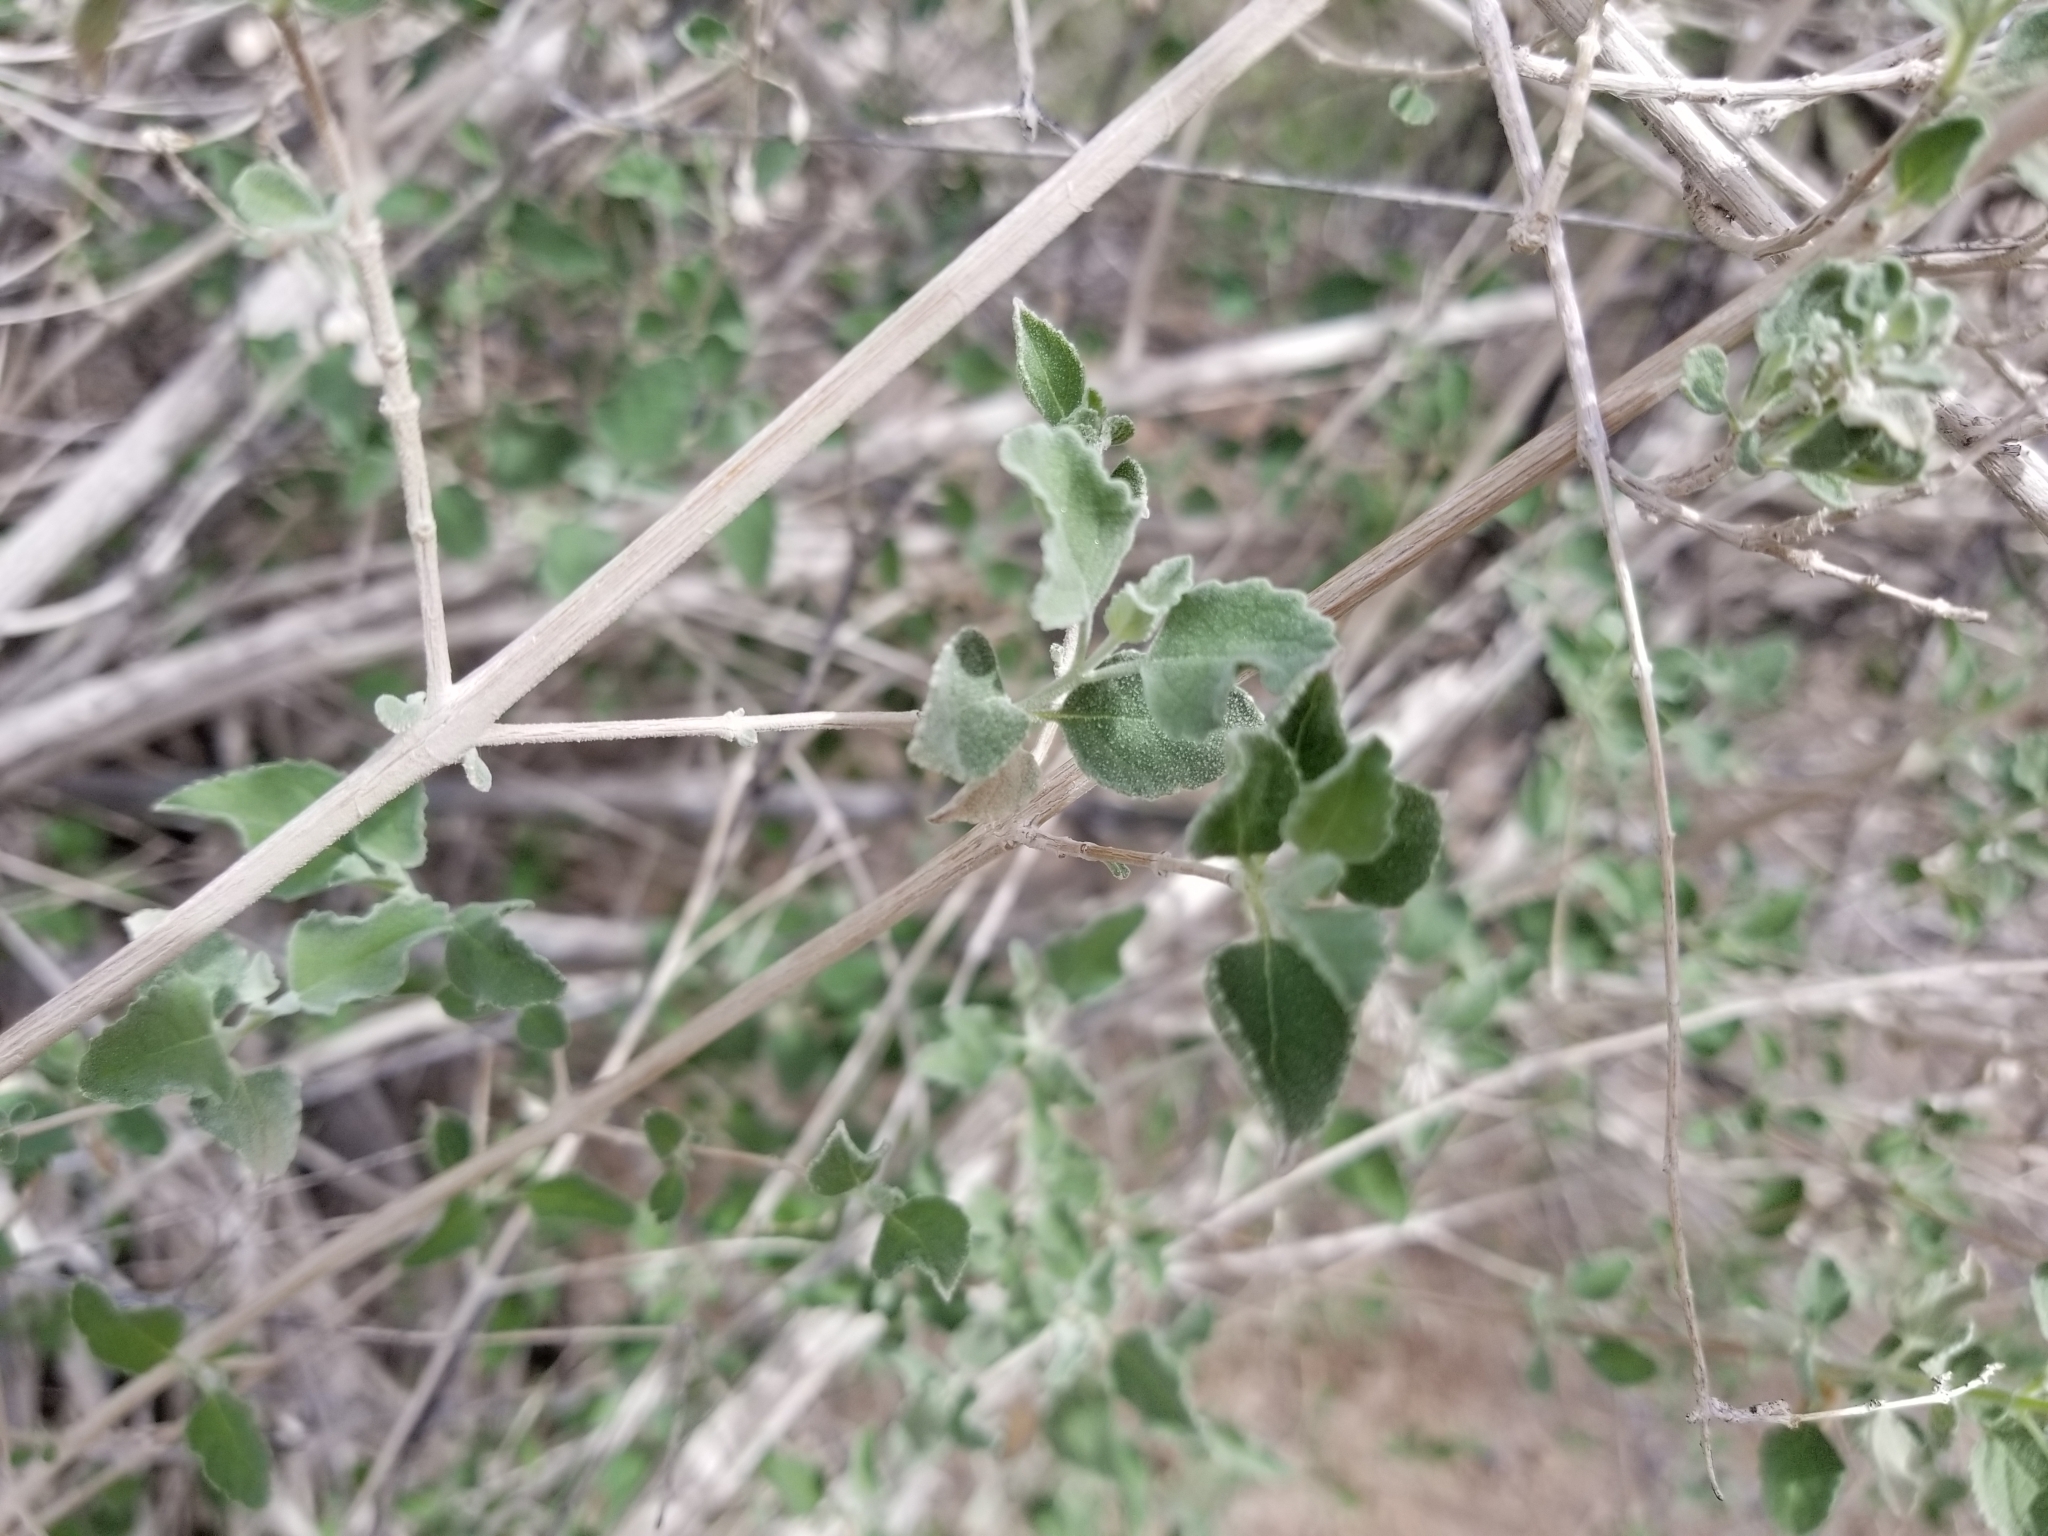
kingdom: Plantae
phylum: Tracheophyta
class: Magnoliopsida
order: Lamiales
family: Lamiaceae
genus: Condea
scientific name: Condea emoryi
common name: Chia
